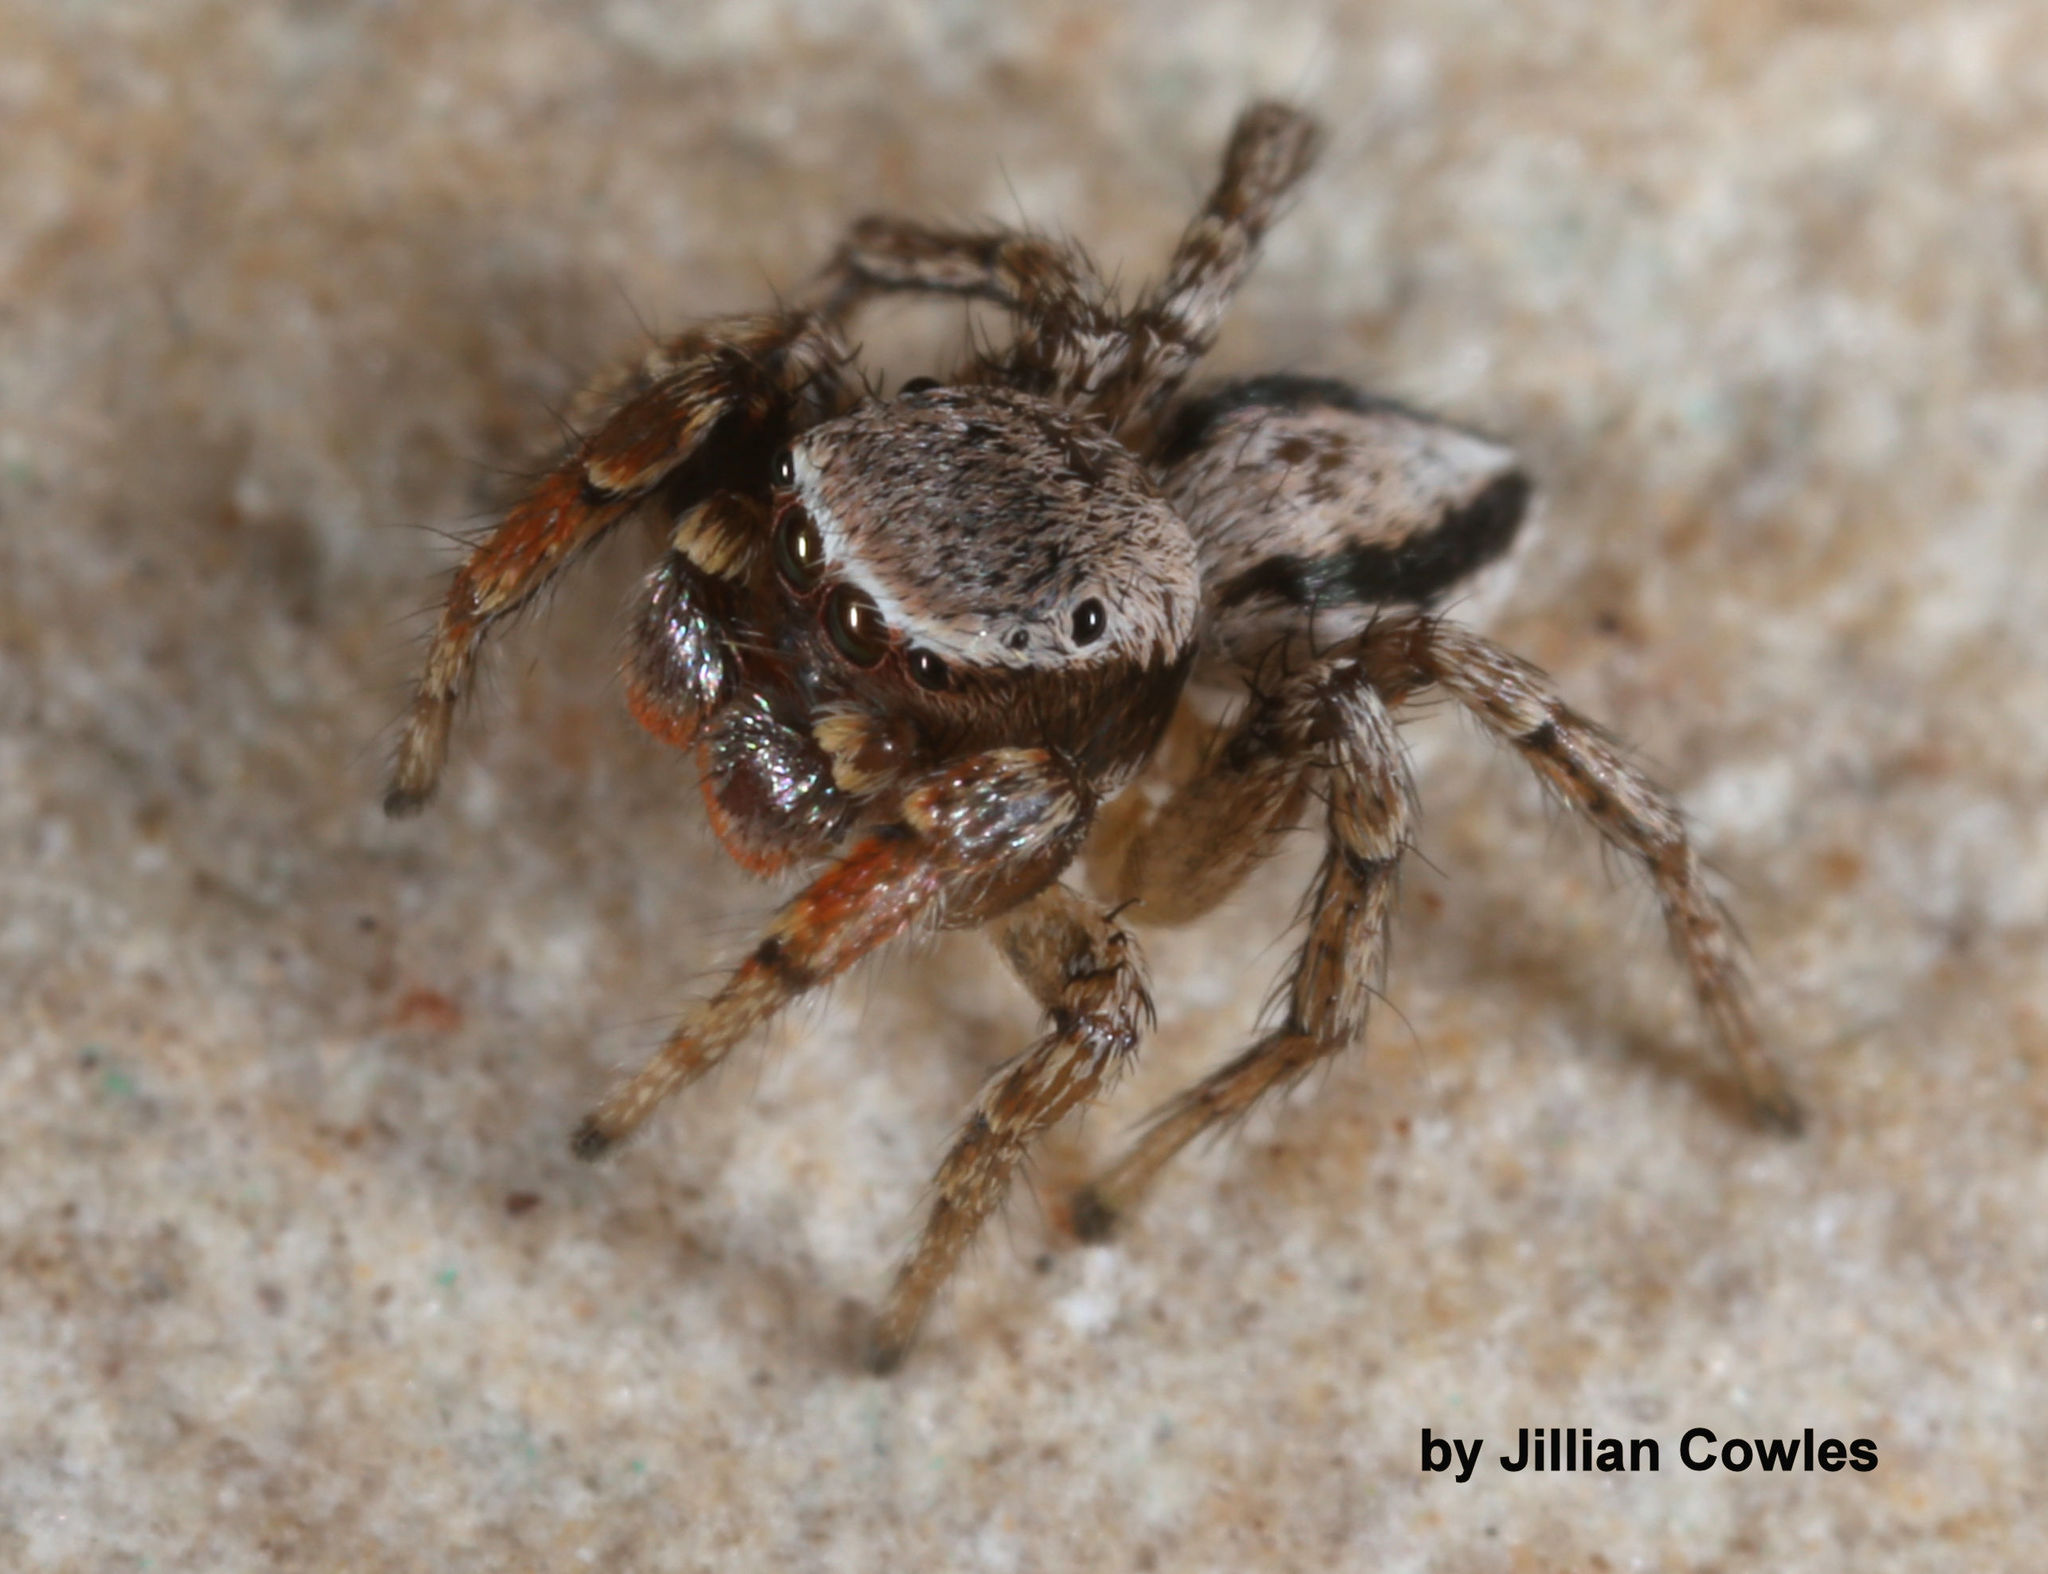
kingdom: Animalia
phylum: Arthropoda
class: Arachnida
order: Araneae
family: Salticidae
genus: Habronattus
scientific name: Habronattus altanus
